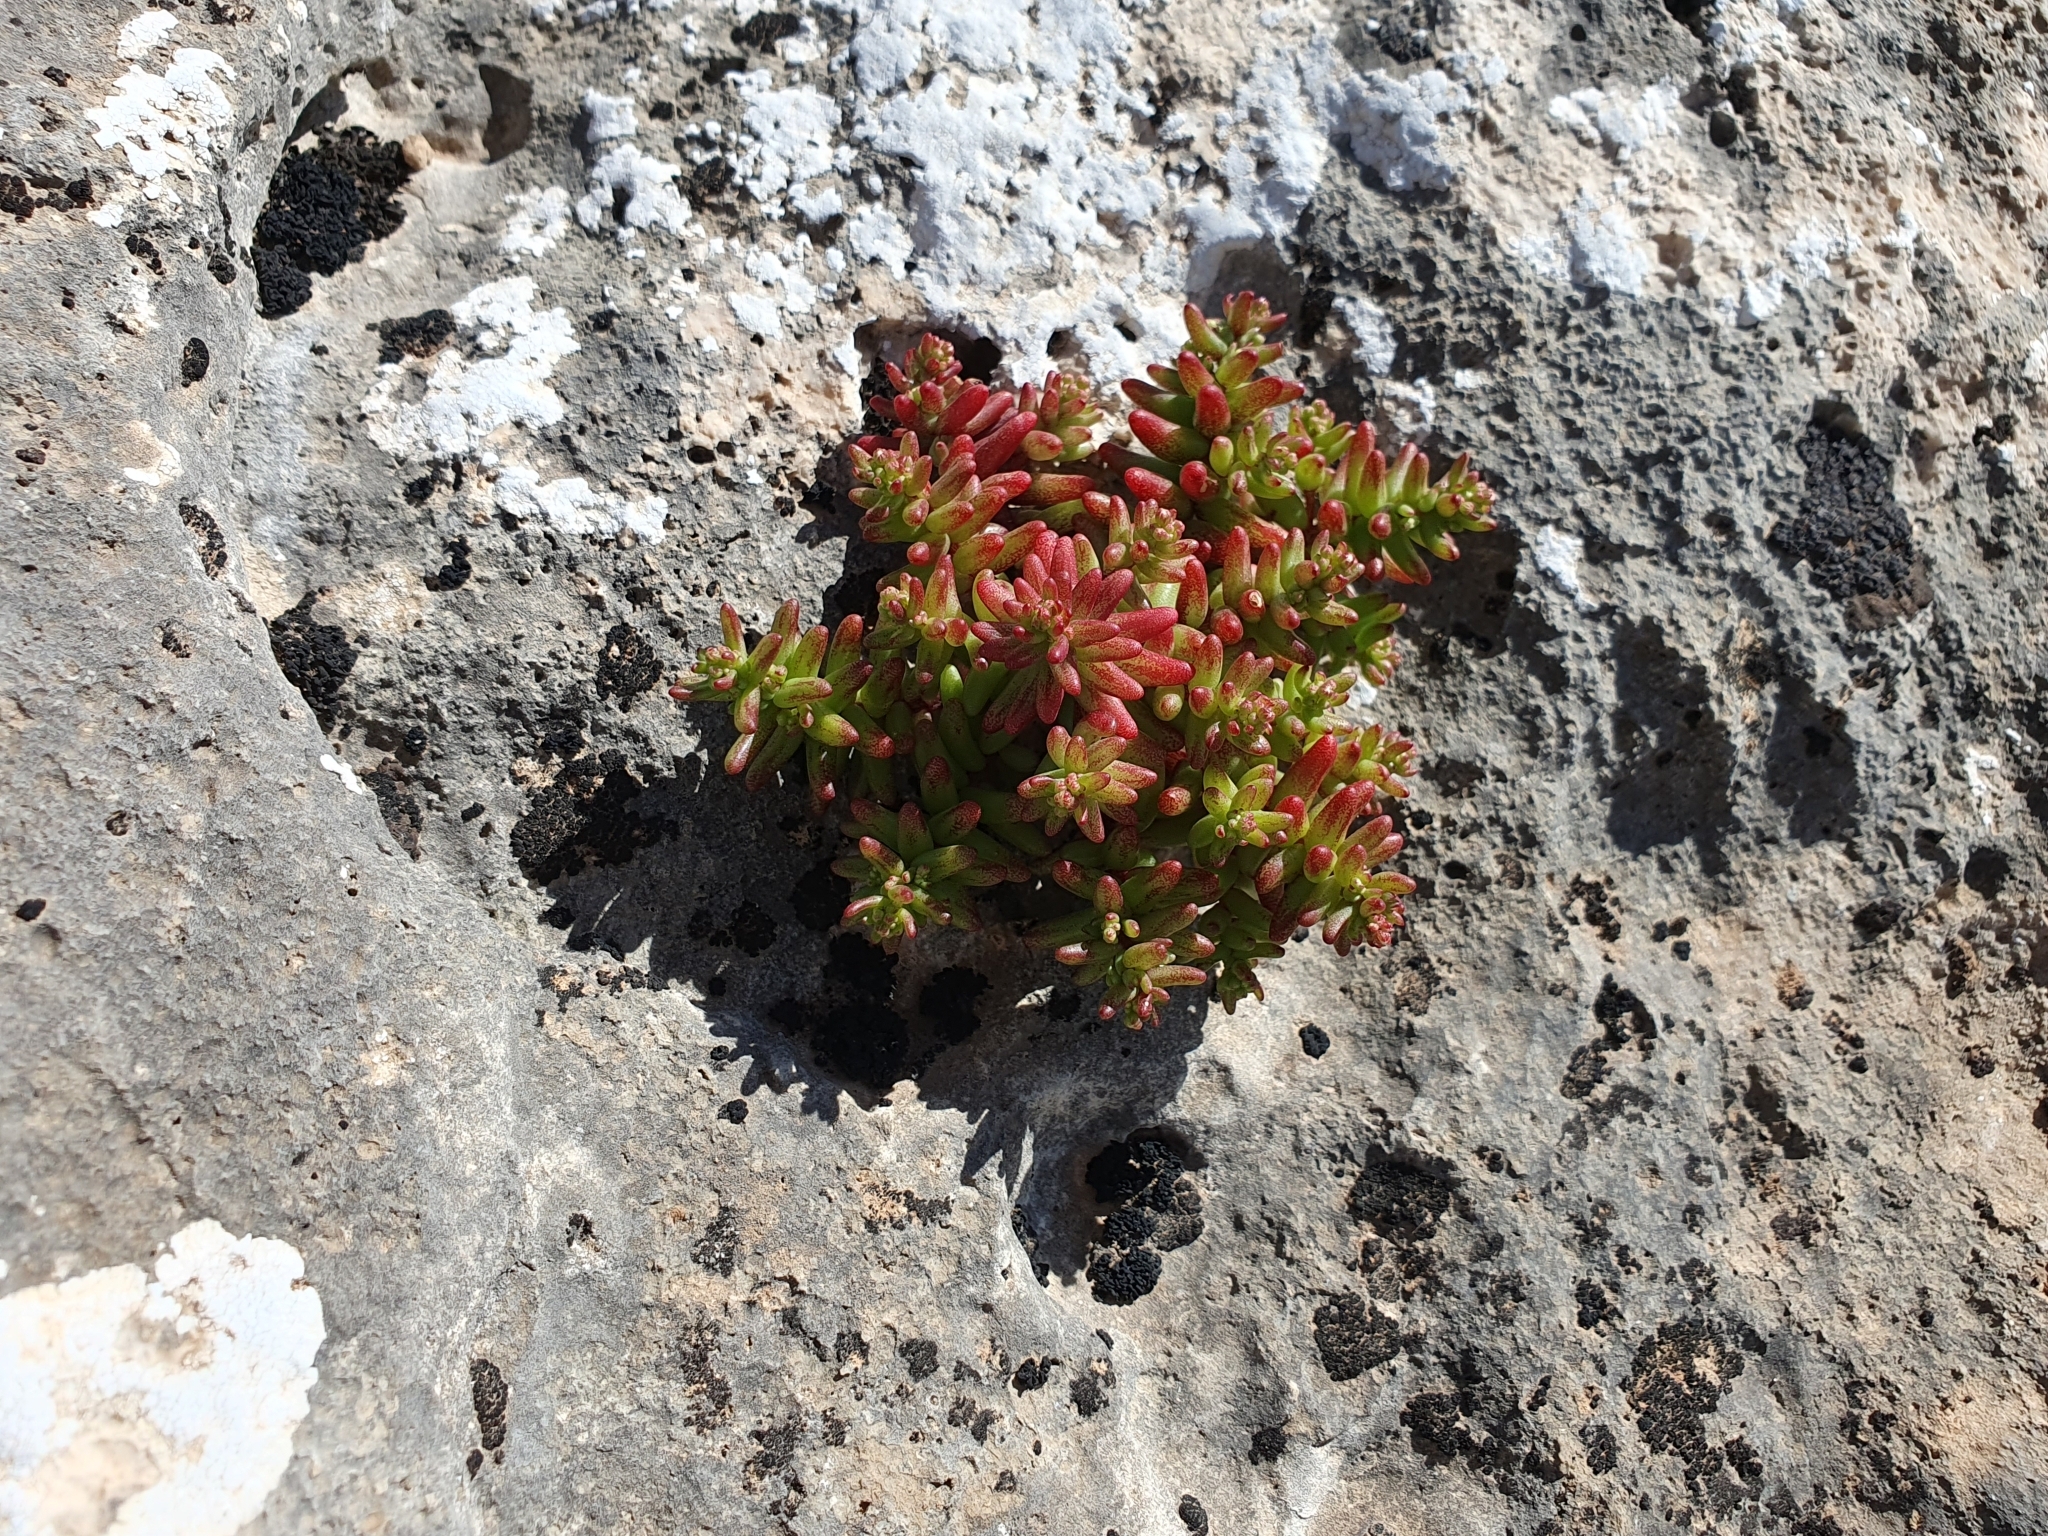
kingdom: Plantae
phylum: Tracheophyta
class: Magnoliopsida
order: Saxifragales
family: Crassulaceae
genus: Sedum
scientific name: Sedum caeruleum
